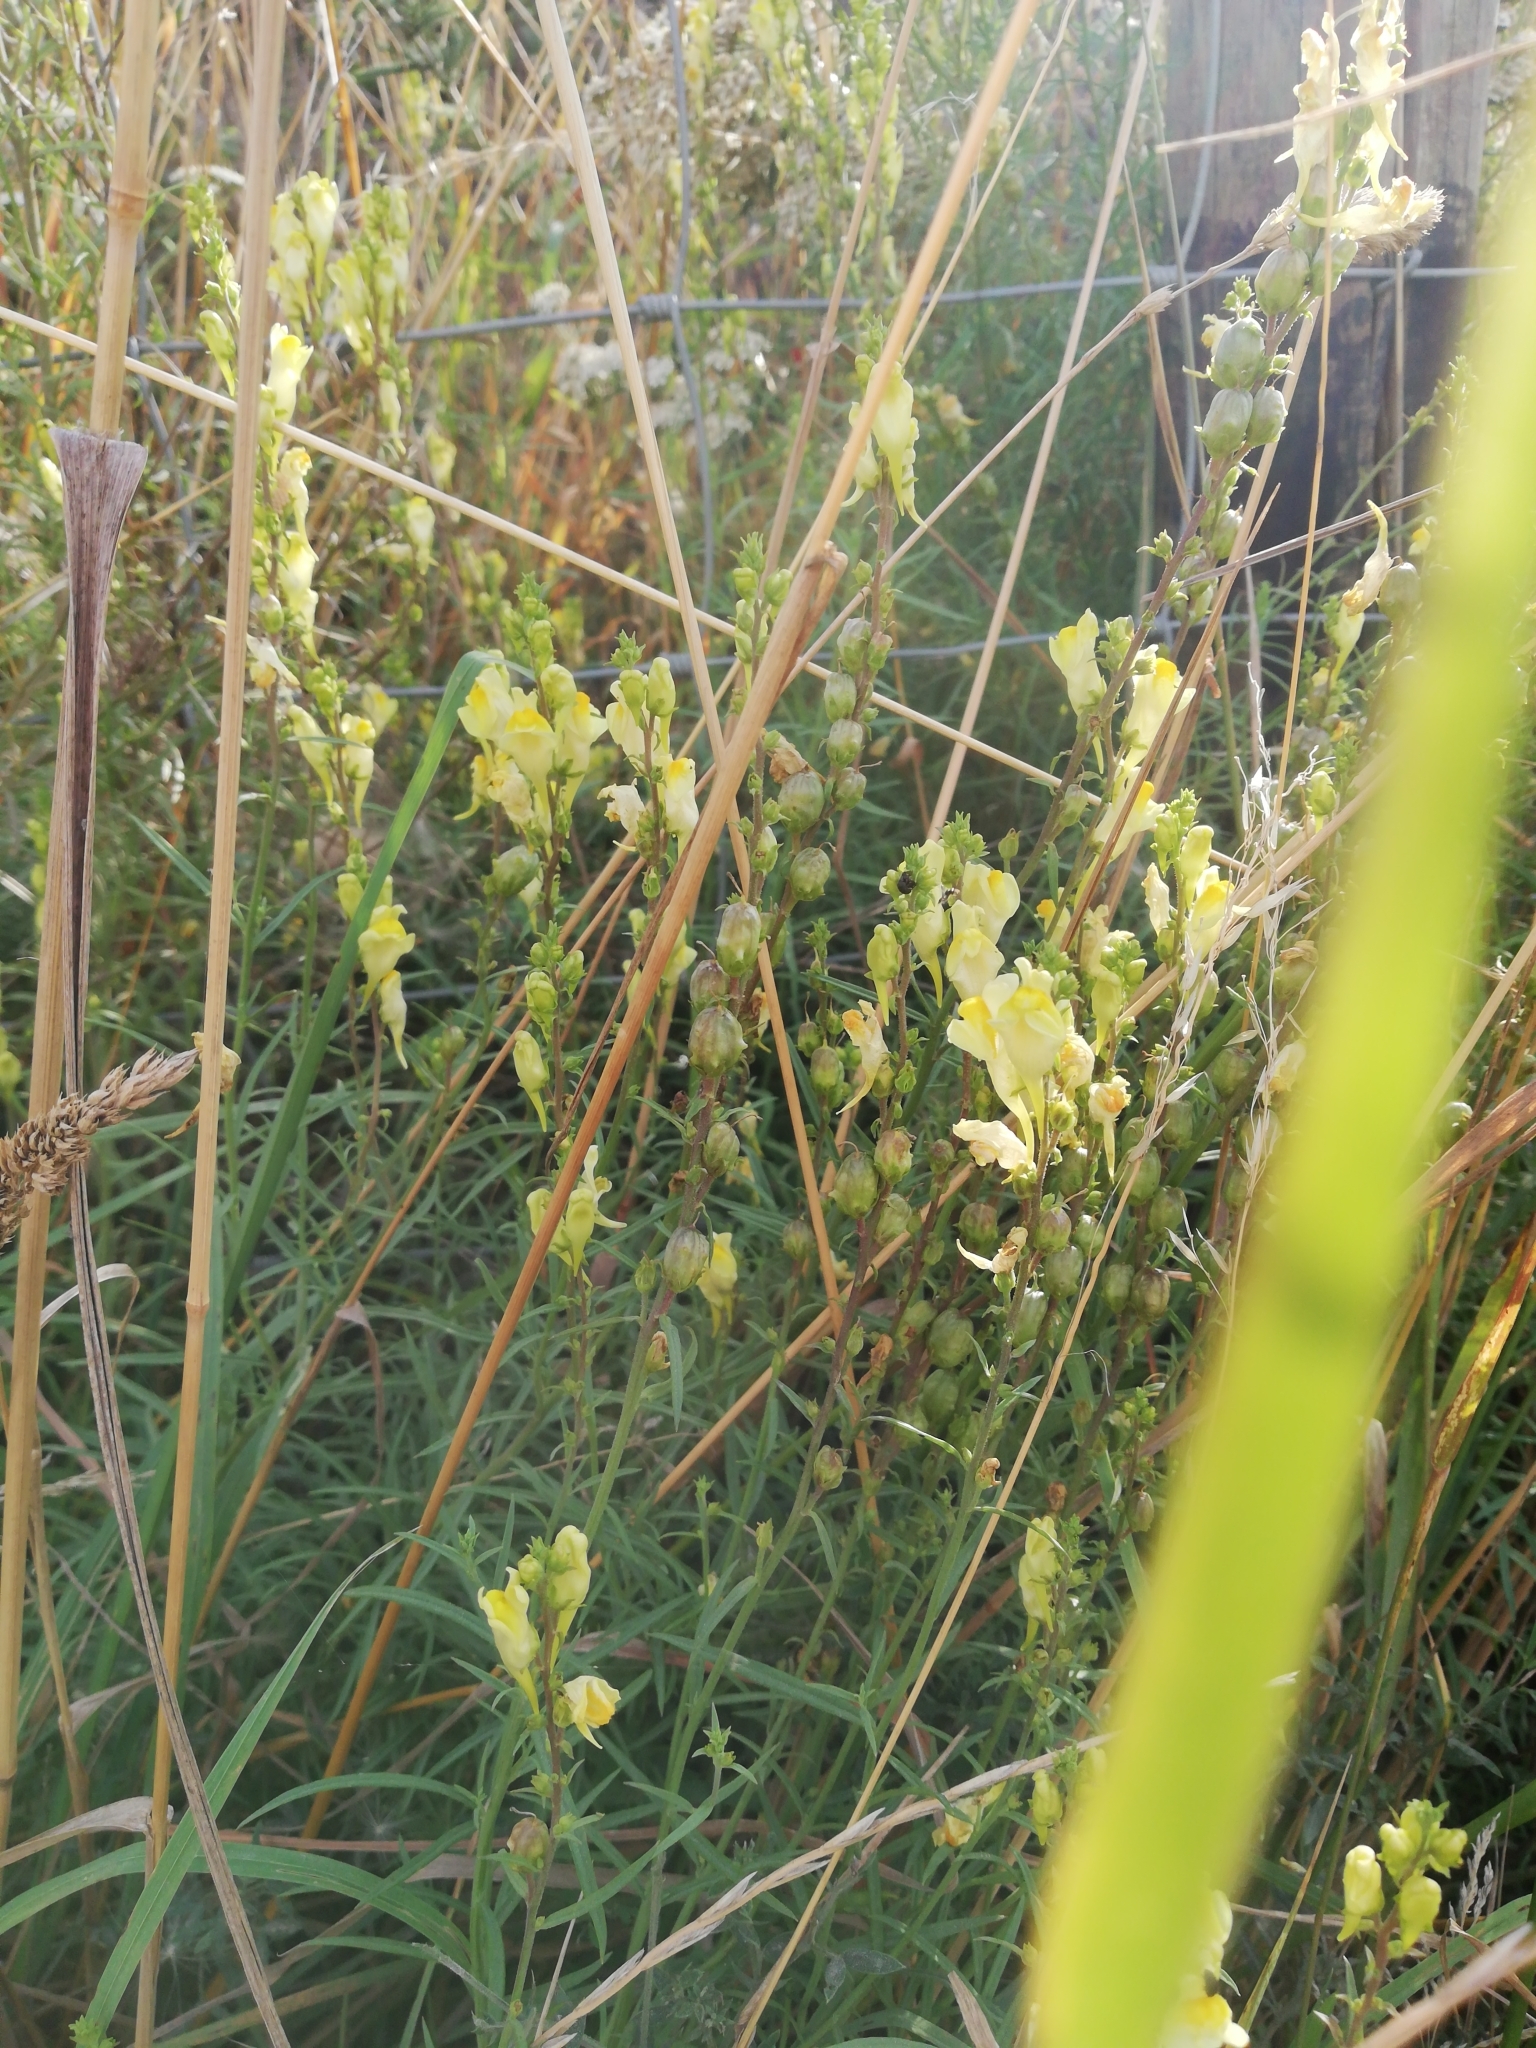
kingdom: Plantae
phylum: Tracheophyta
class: Magnoliopsida
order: Lamiales
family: Plantaginaceae
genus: Linaria
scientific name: Linaria vulgaris
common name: Butter and eggs
